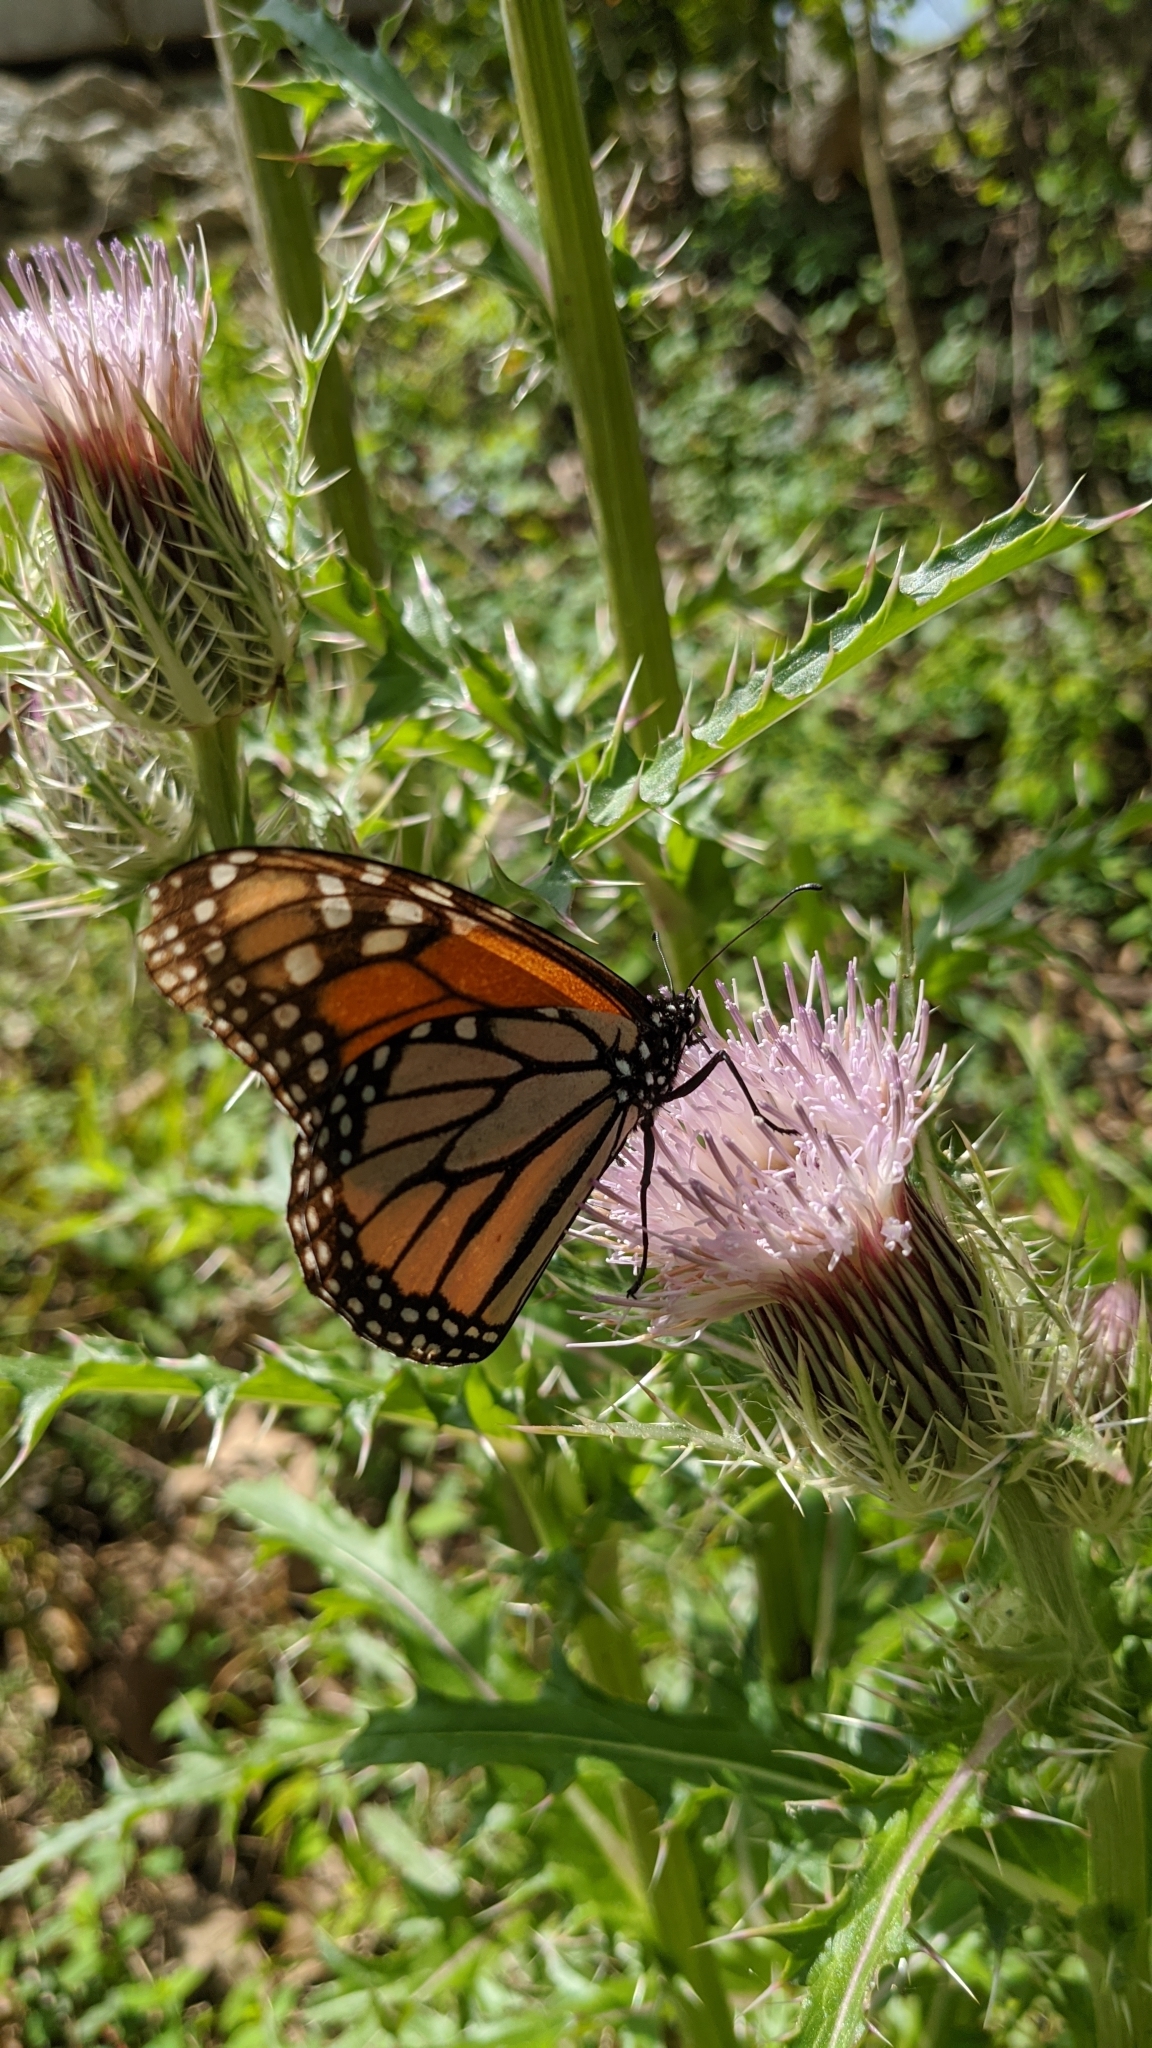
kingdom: Animalia
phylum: Arthropoda
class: Insecta
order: Lepidoptera
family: Nymphalidae
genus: Danaus
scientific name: Danaus plexippus
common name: Monarch
